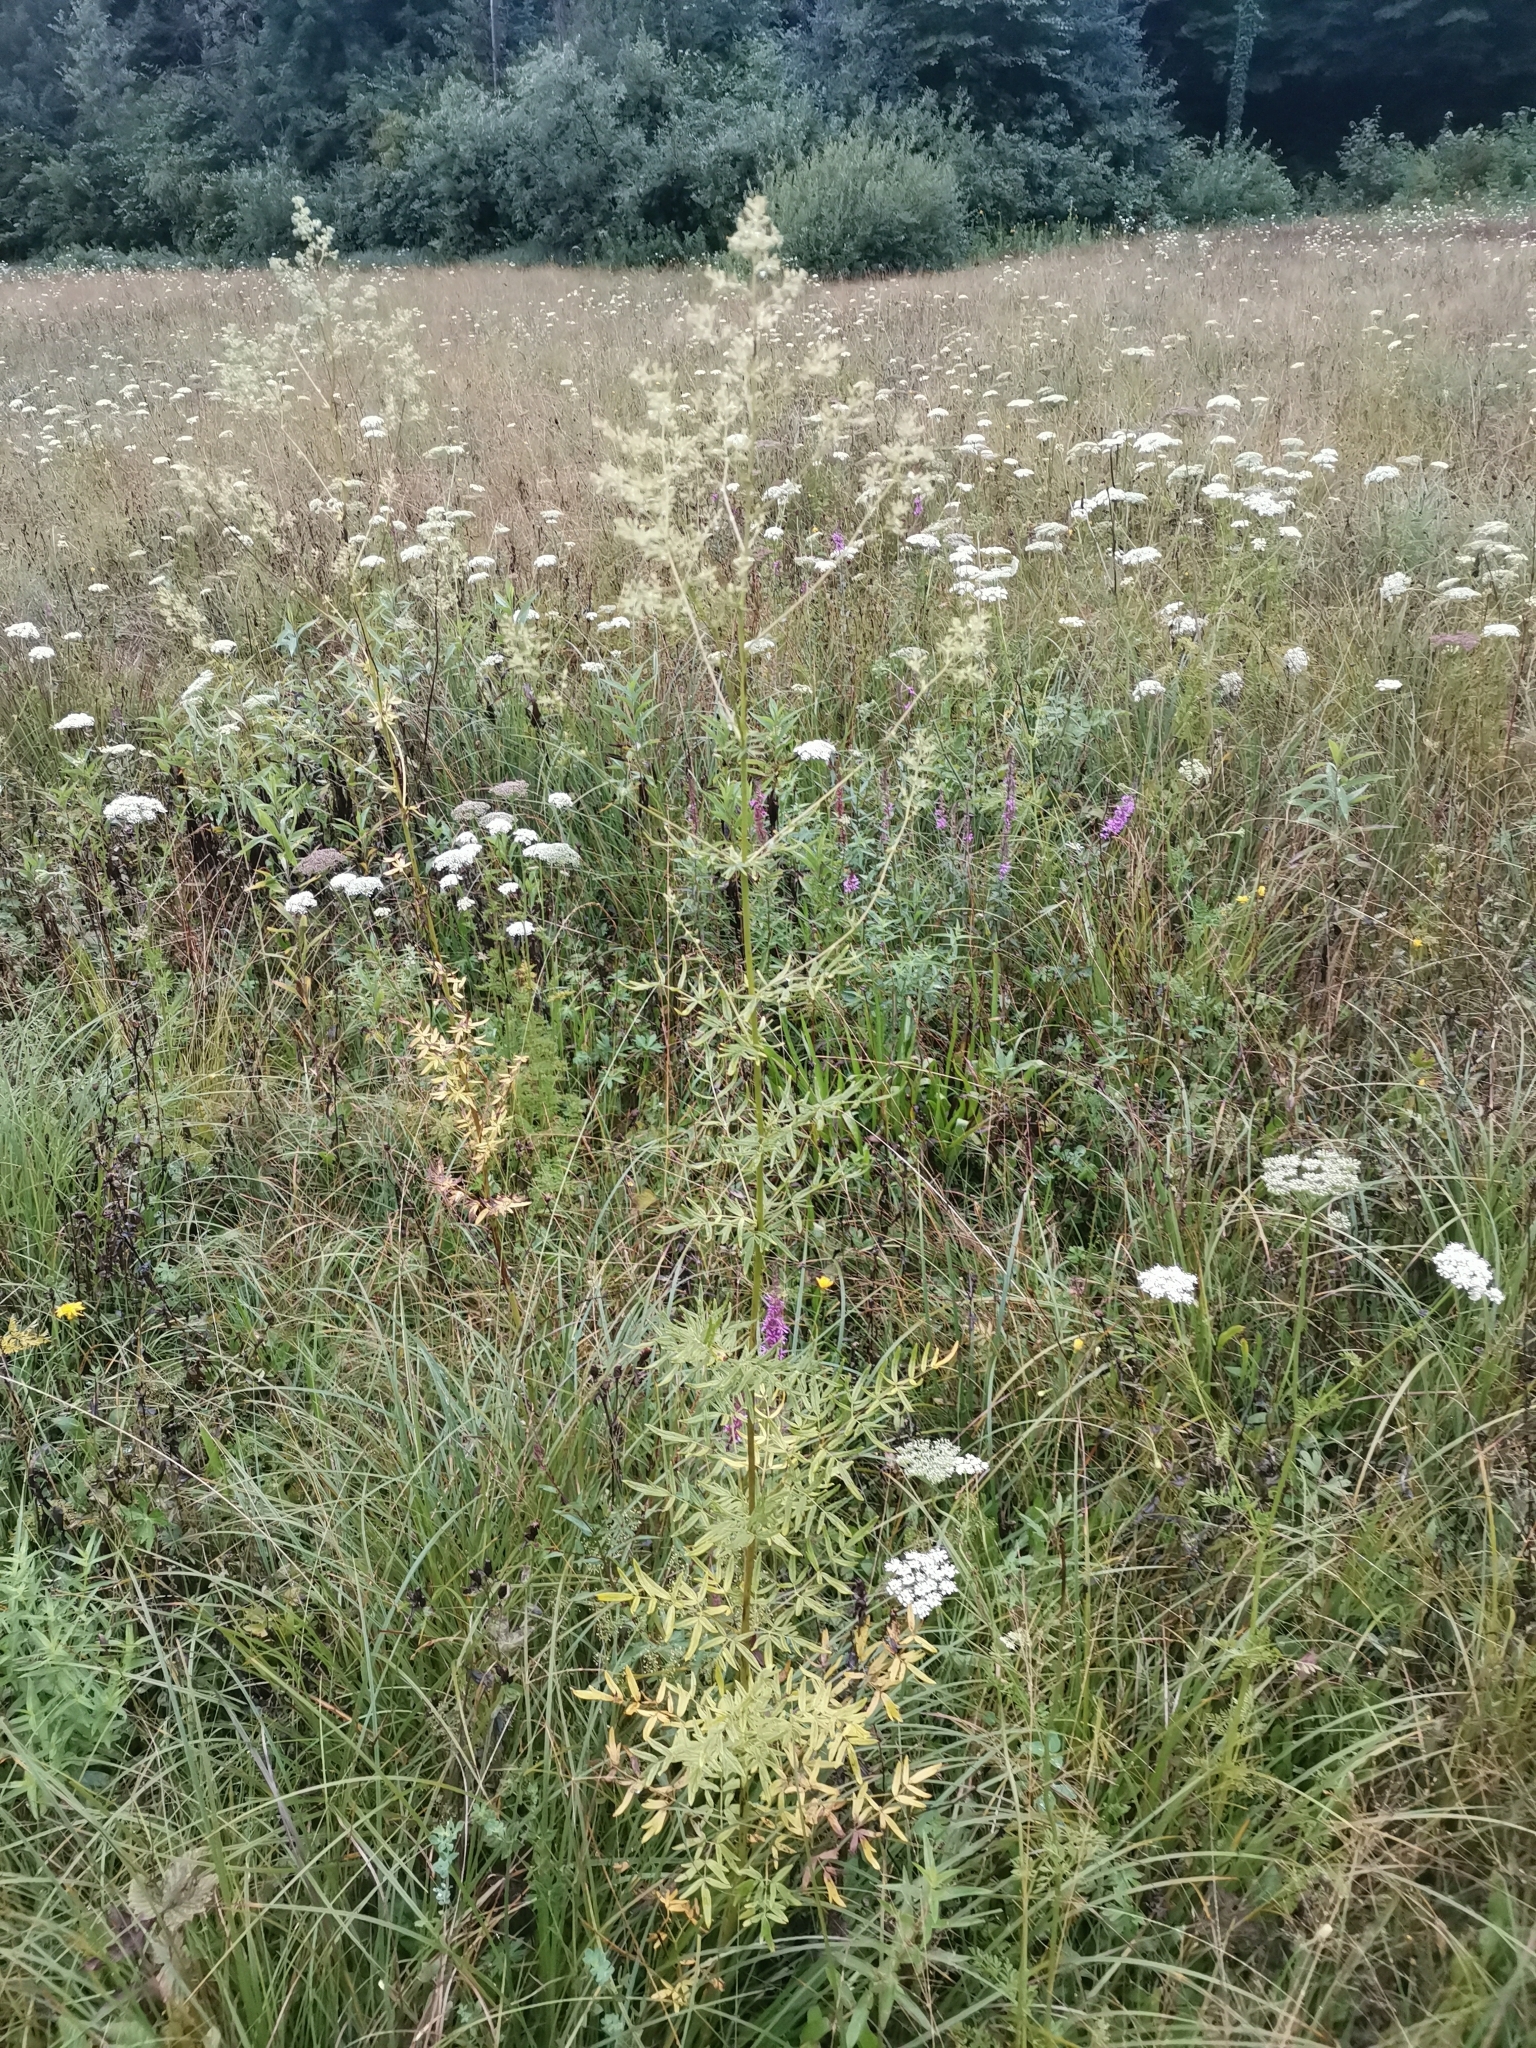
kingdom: Plantae
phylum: Tracheophyta
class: Magnoliopsida
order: Ranunculales
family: Ranunculaceae
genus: Thalictrum
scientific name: Thalictrum lucidum
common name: Shining meadow-rue
